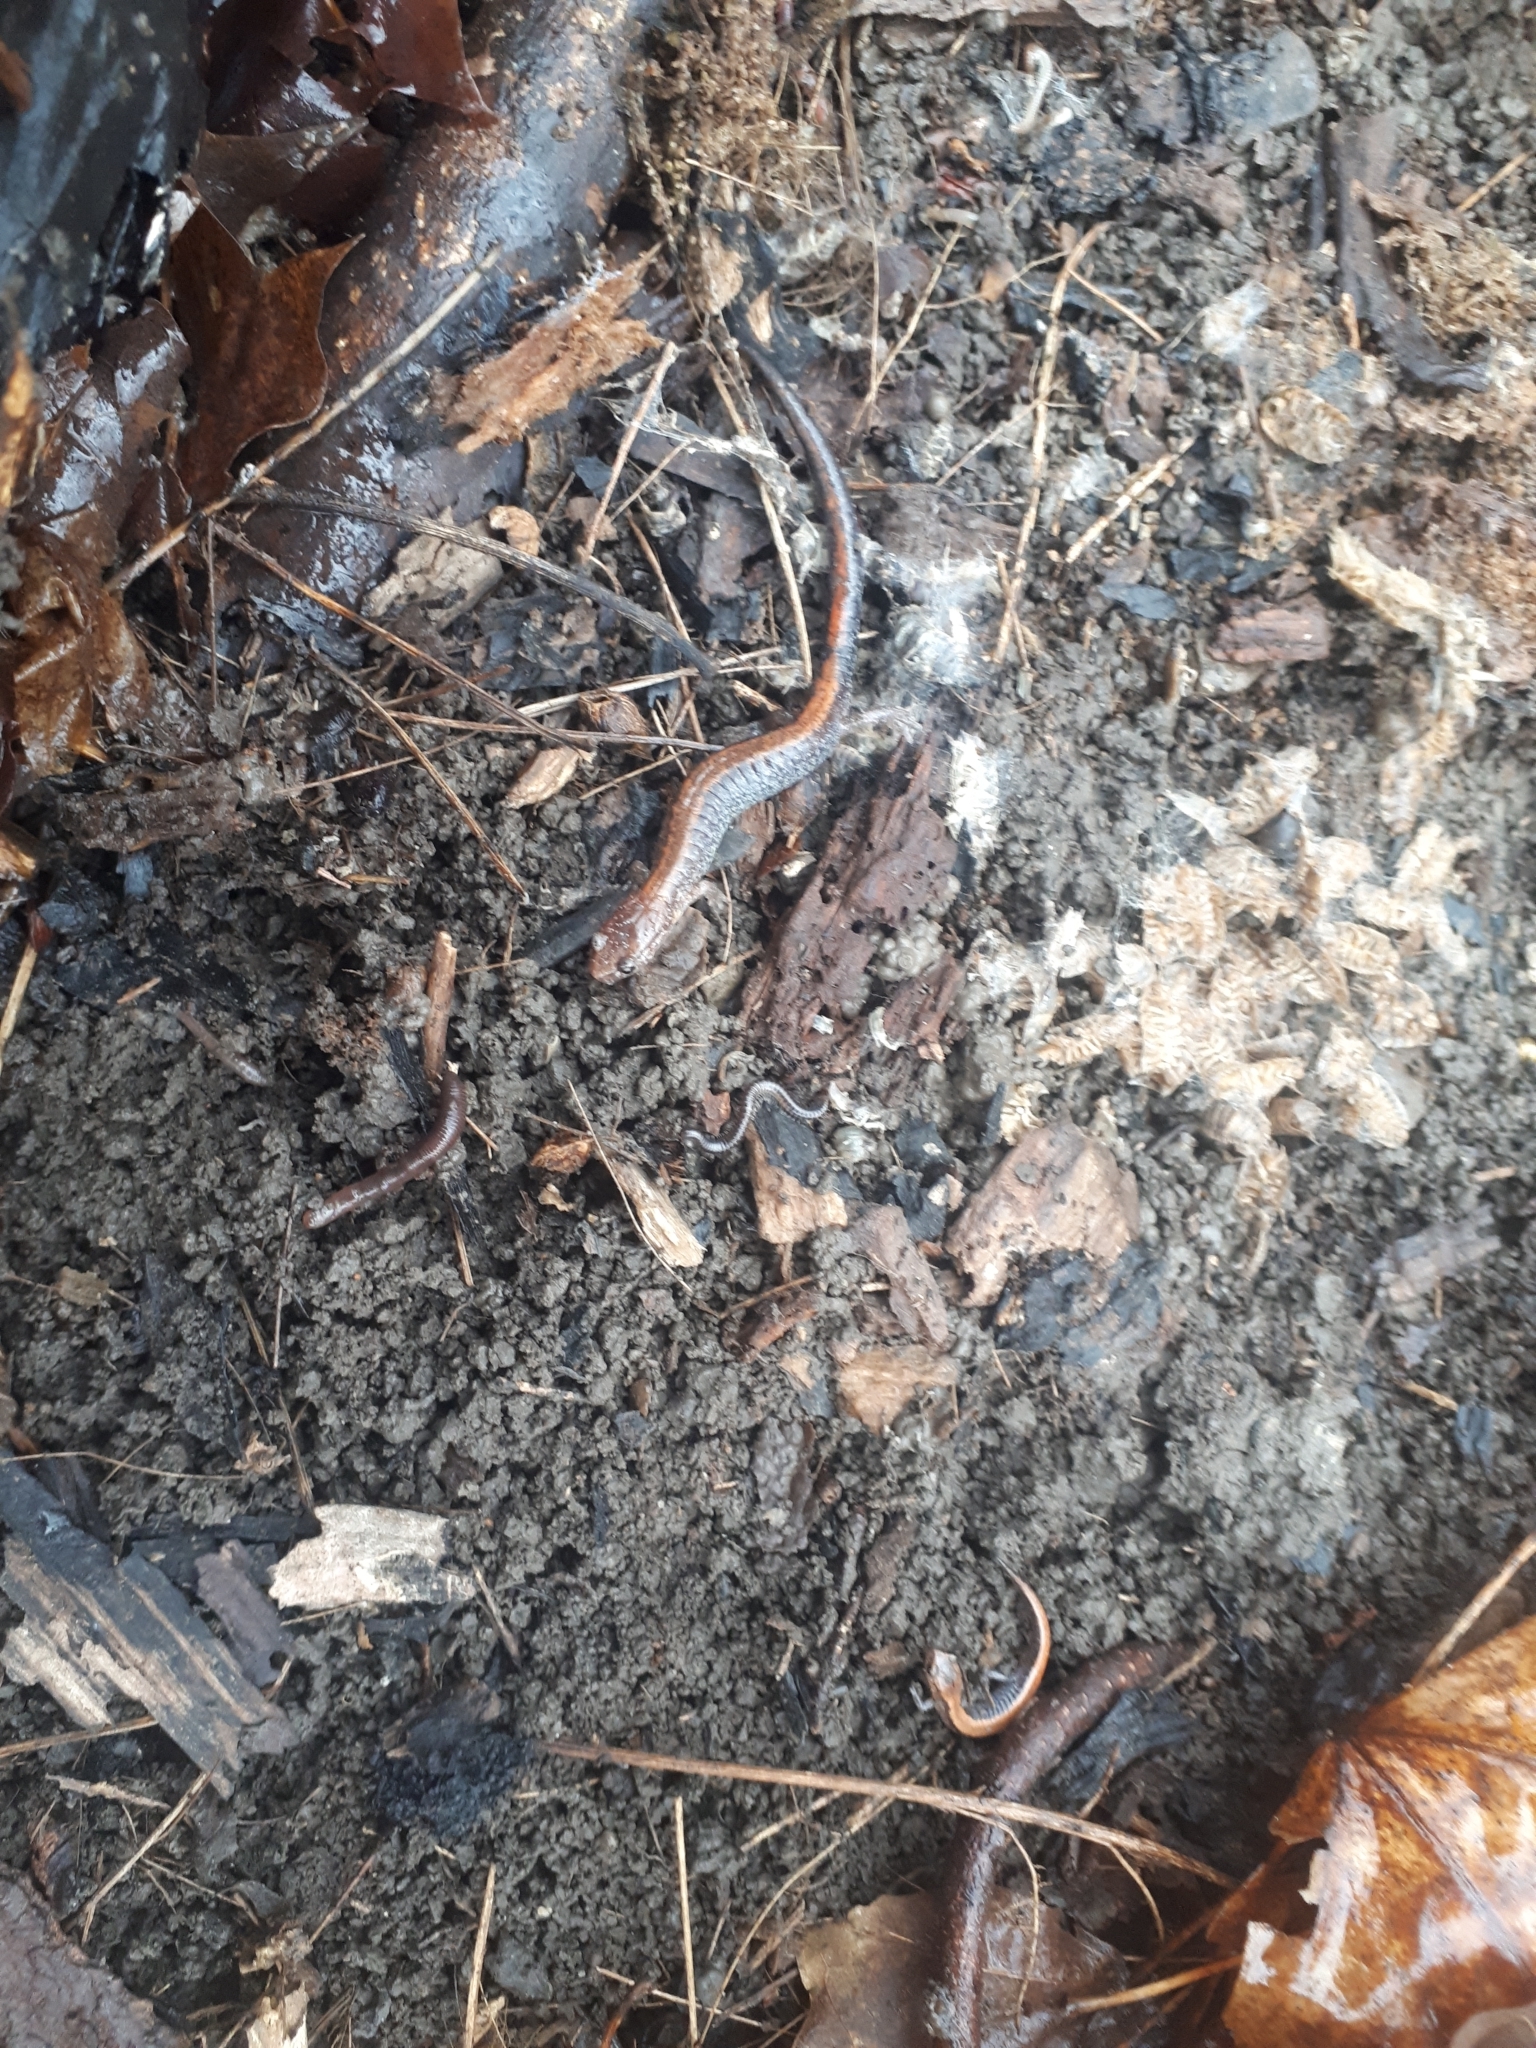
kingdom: Animalia
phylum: Chordata
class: Amphibia
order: Caudata
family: Plethodontidae
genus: Plethodon
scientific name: Plethodon cinereus
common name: Redback salamander
